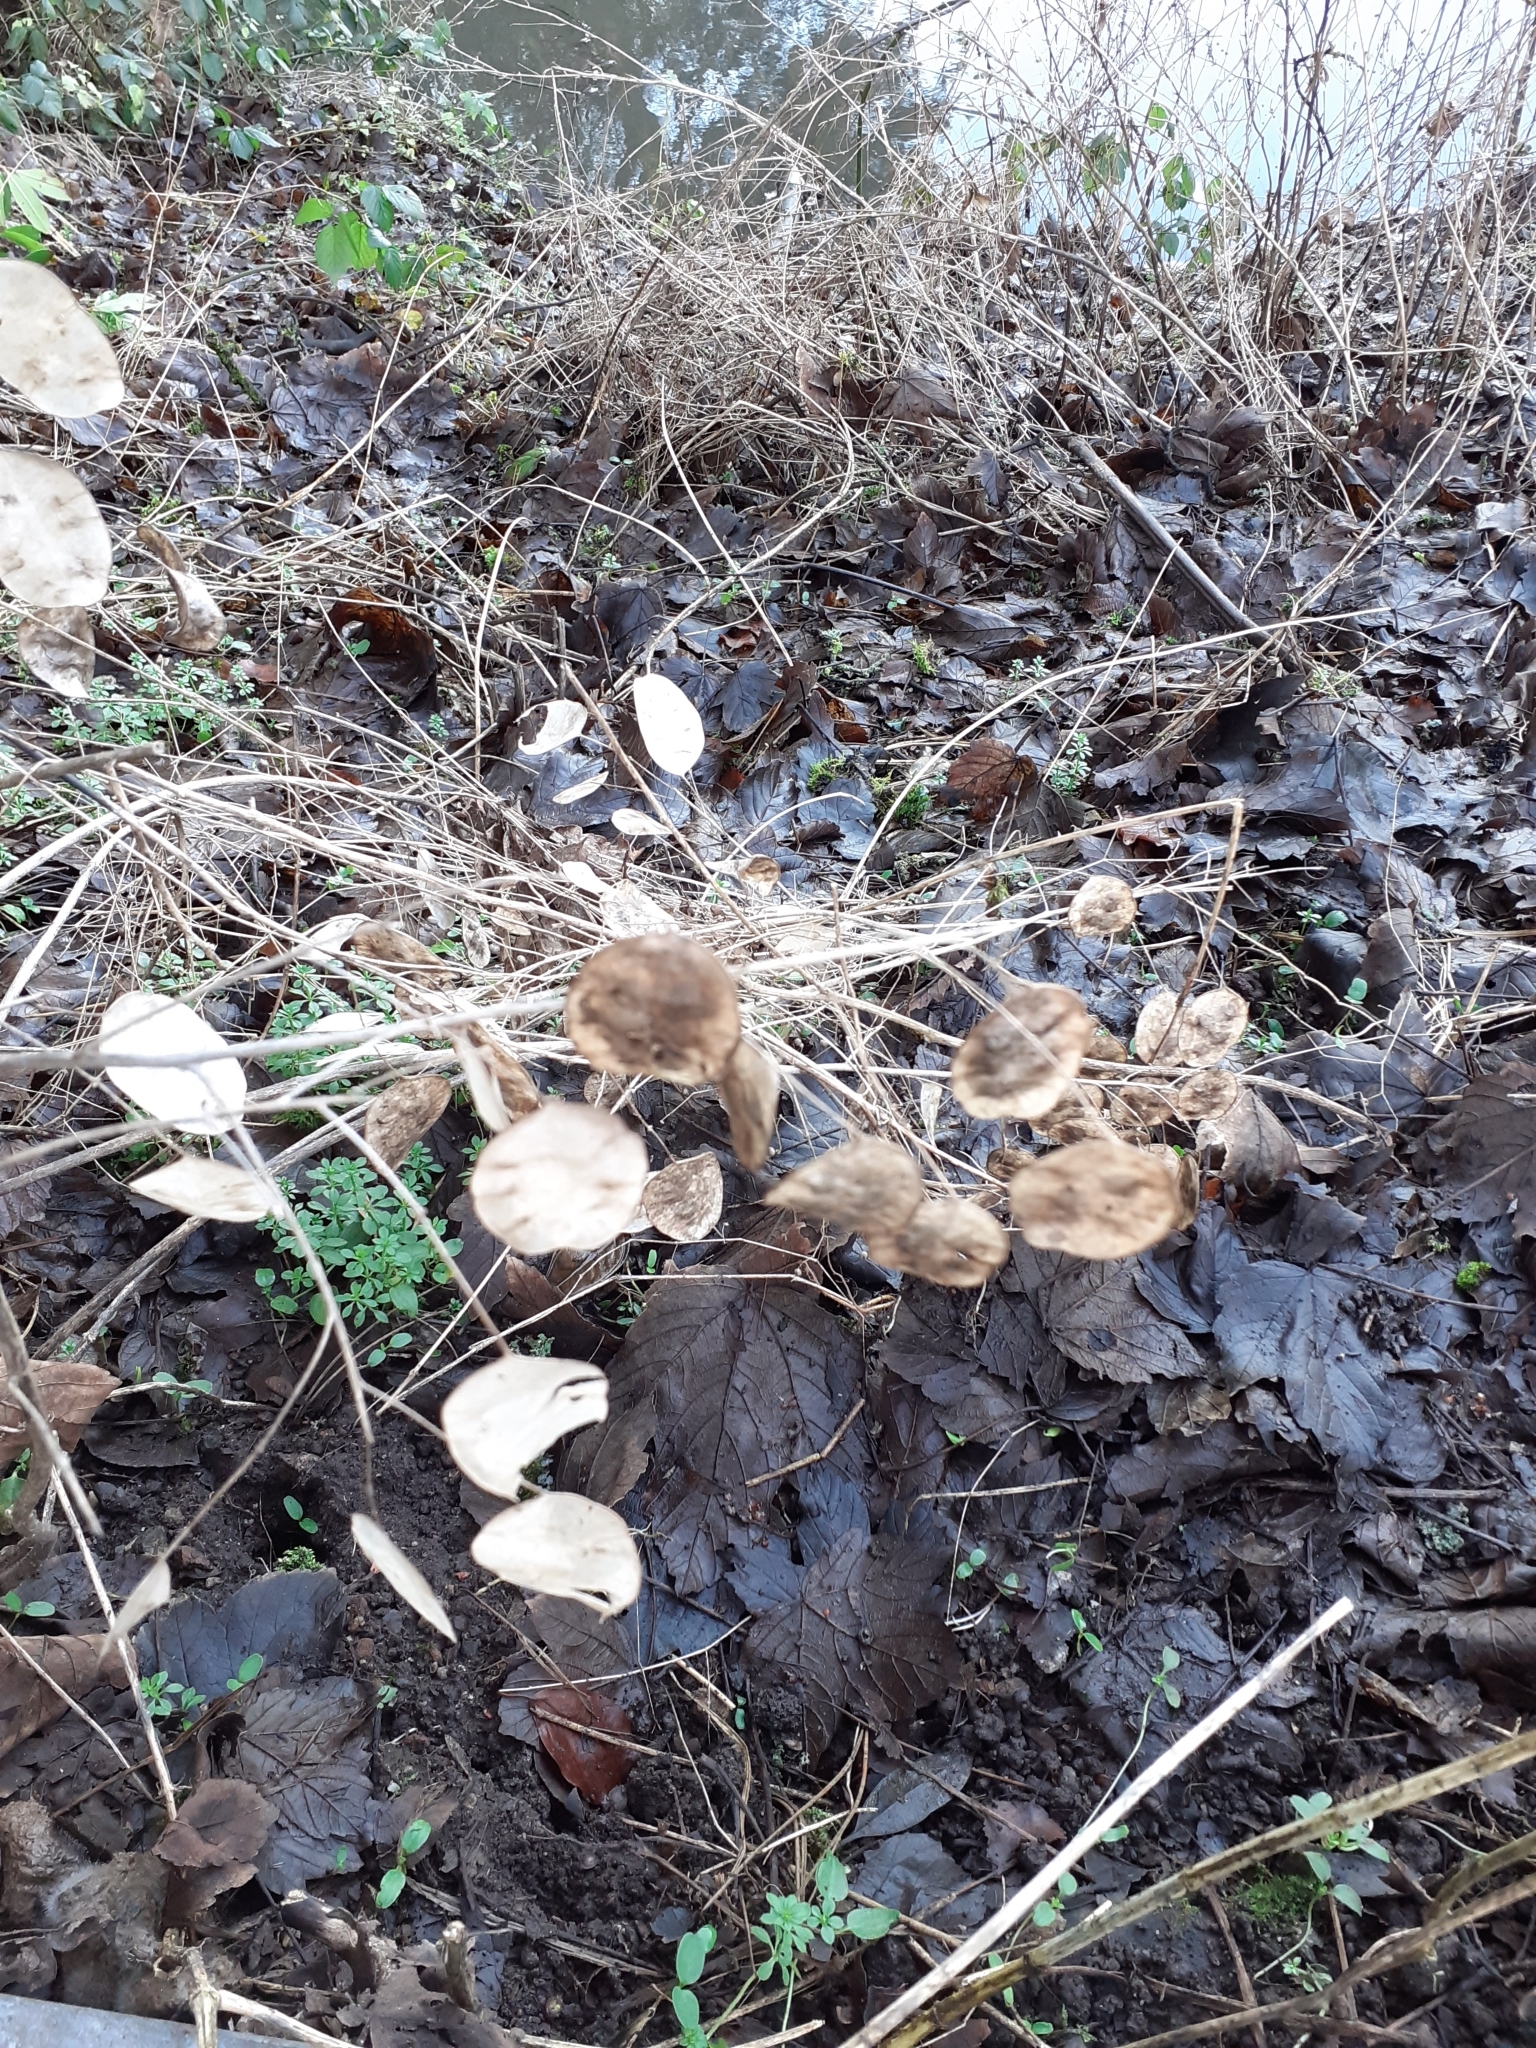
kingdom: Plantae
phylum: Tracheophyta
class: Magnoliopsida
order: Brassicales
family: Brassicaceae
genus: Lunaria
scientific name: Lunaria annua
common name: Honesty
